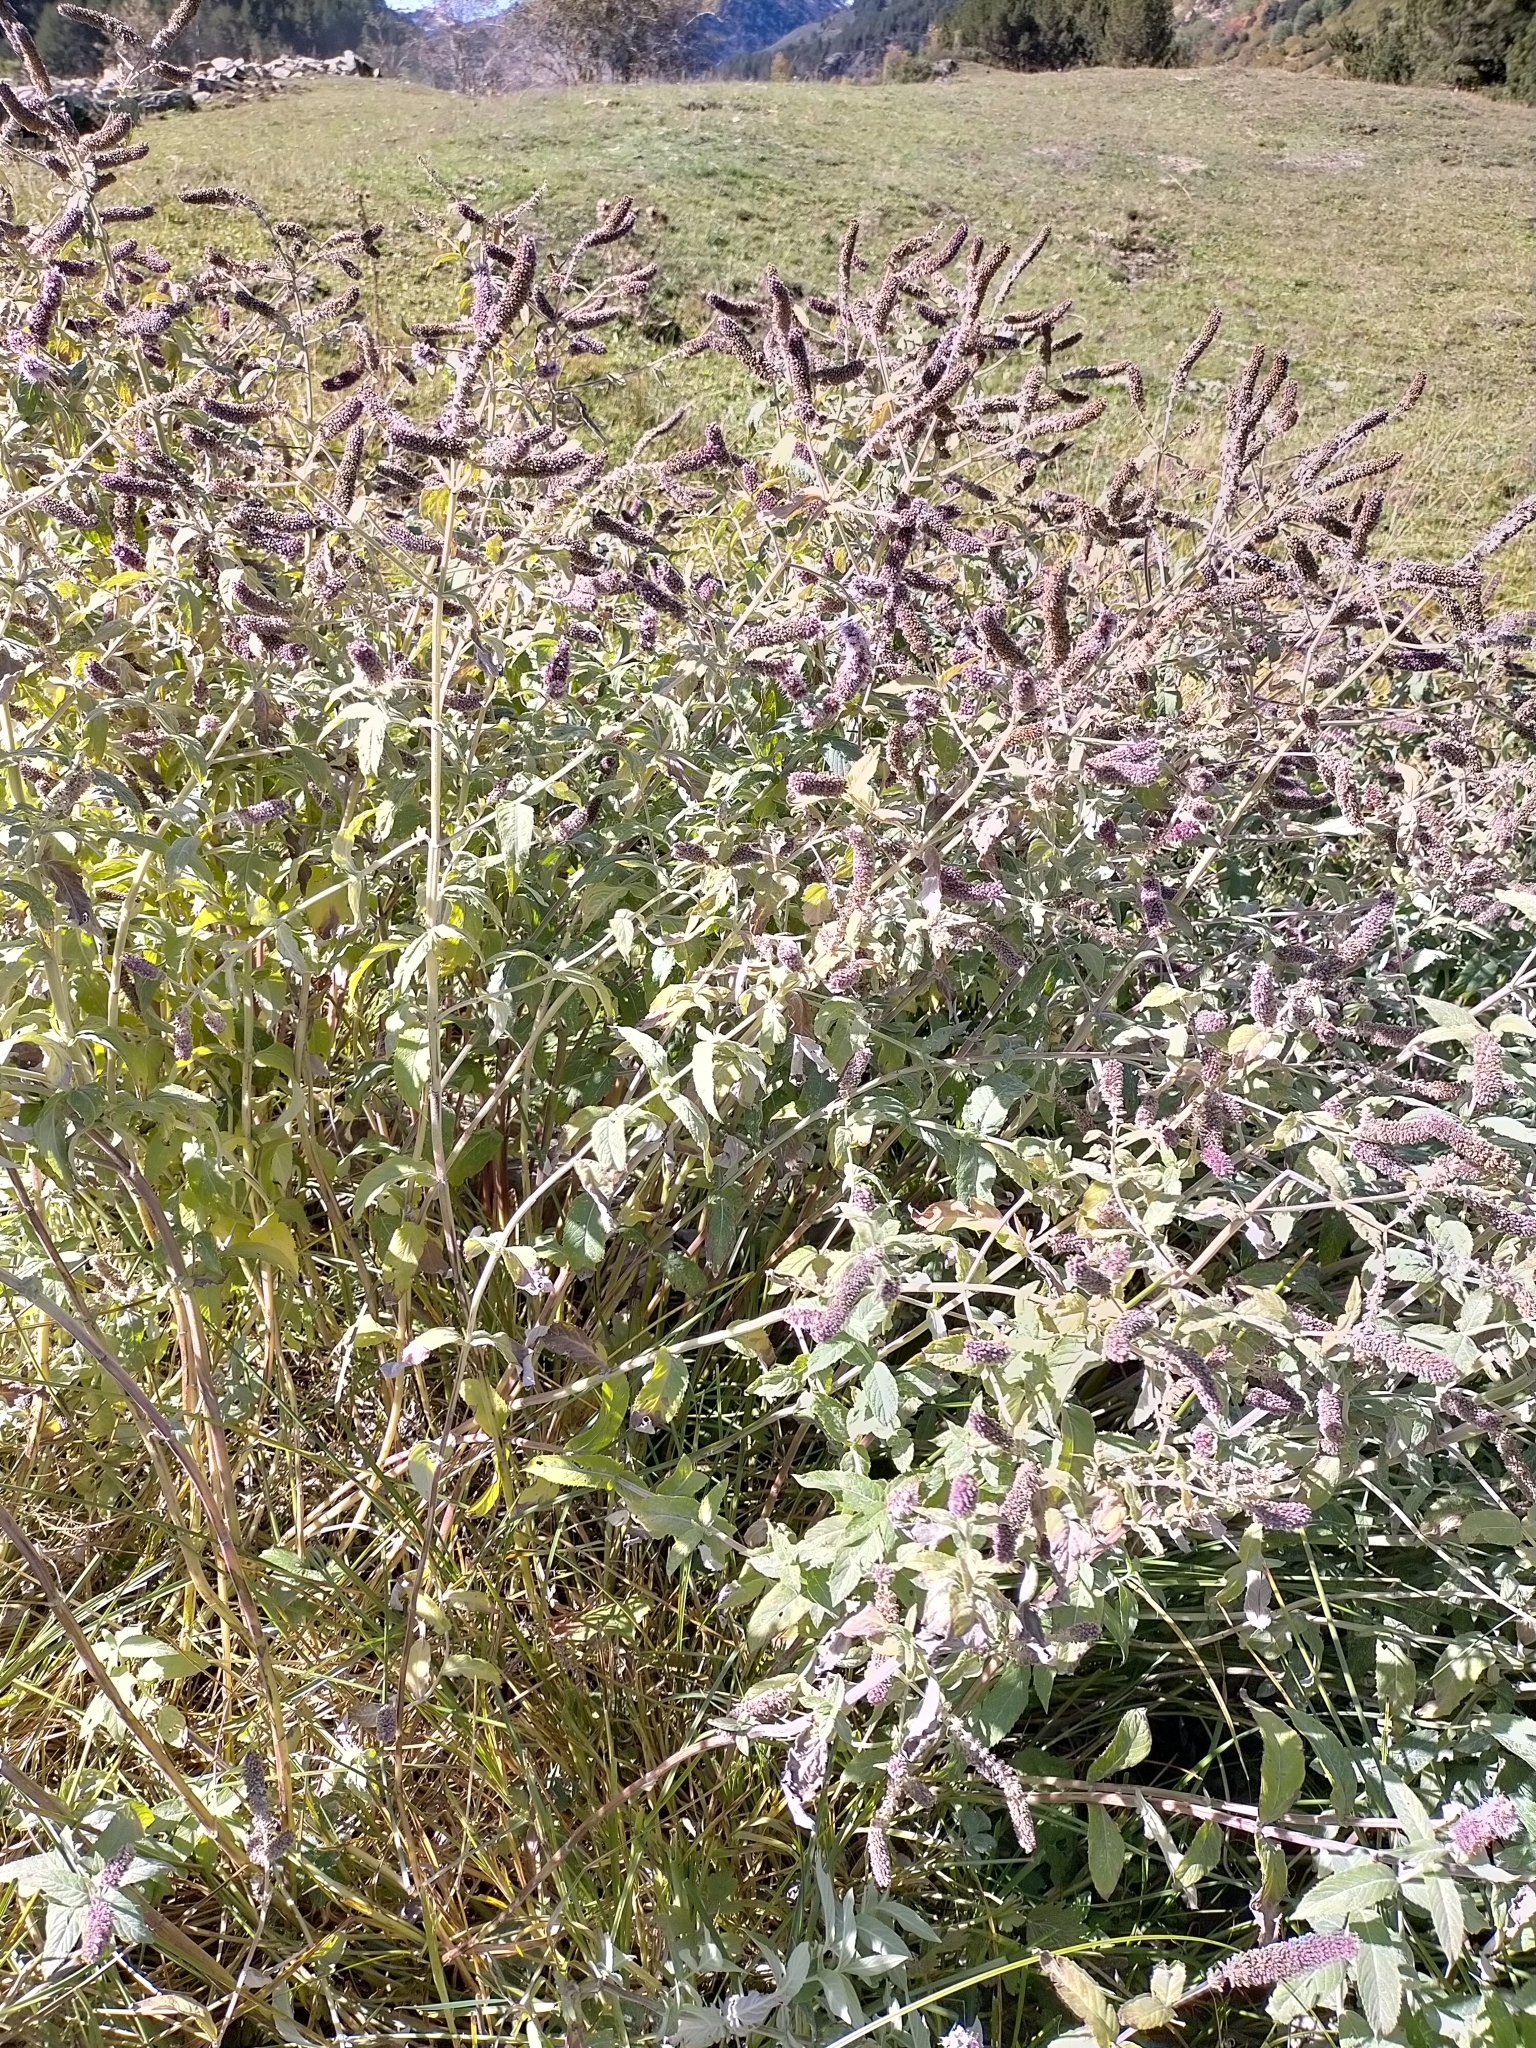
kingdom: Plantae
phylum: Tracheophyta
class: Magnoliopsida
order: Lamiales
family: Scrophulariaceae
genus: Buddleja
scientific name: Buddleja davidii
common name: Butterfly-bush
